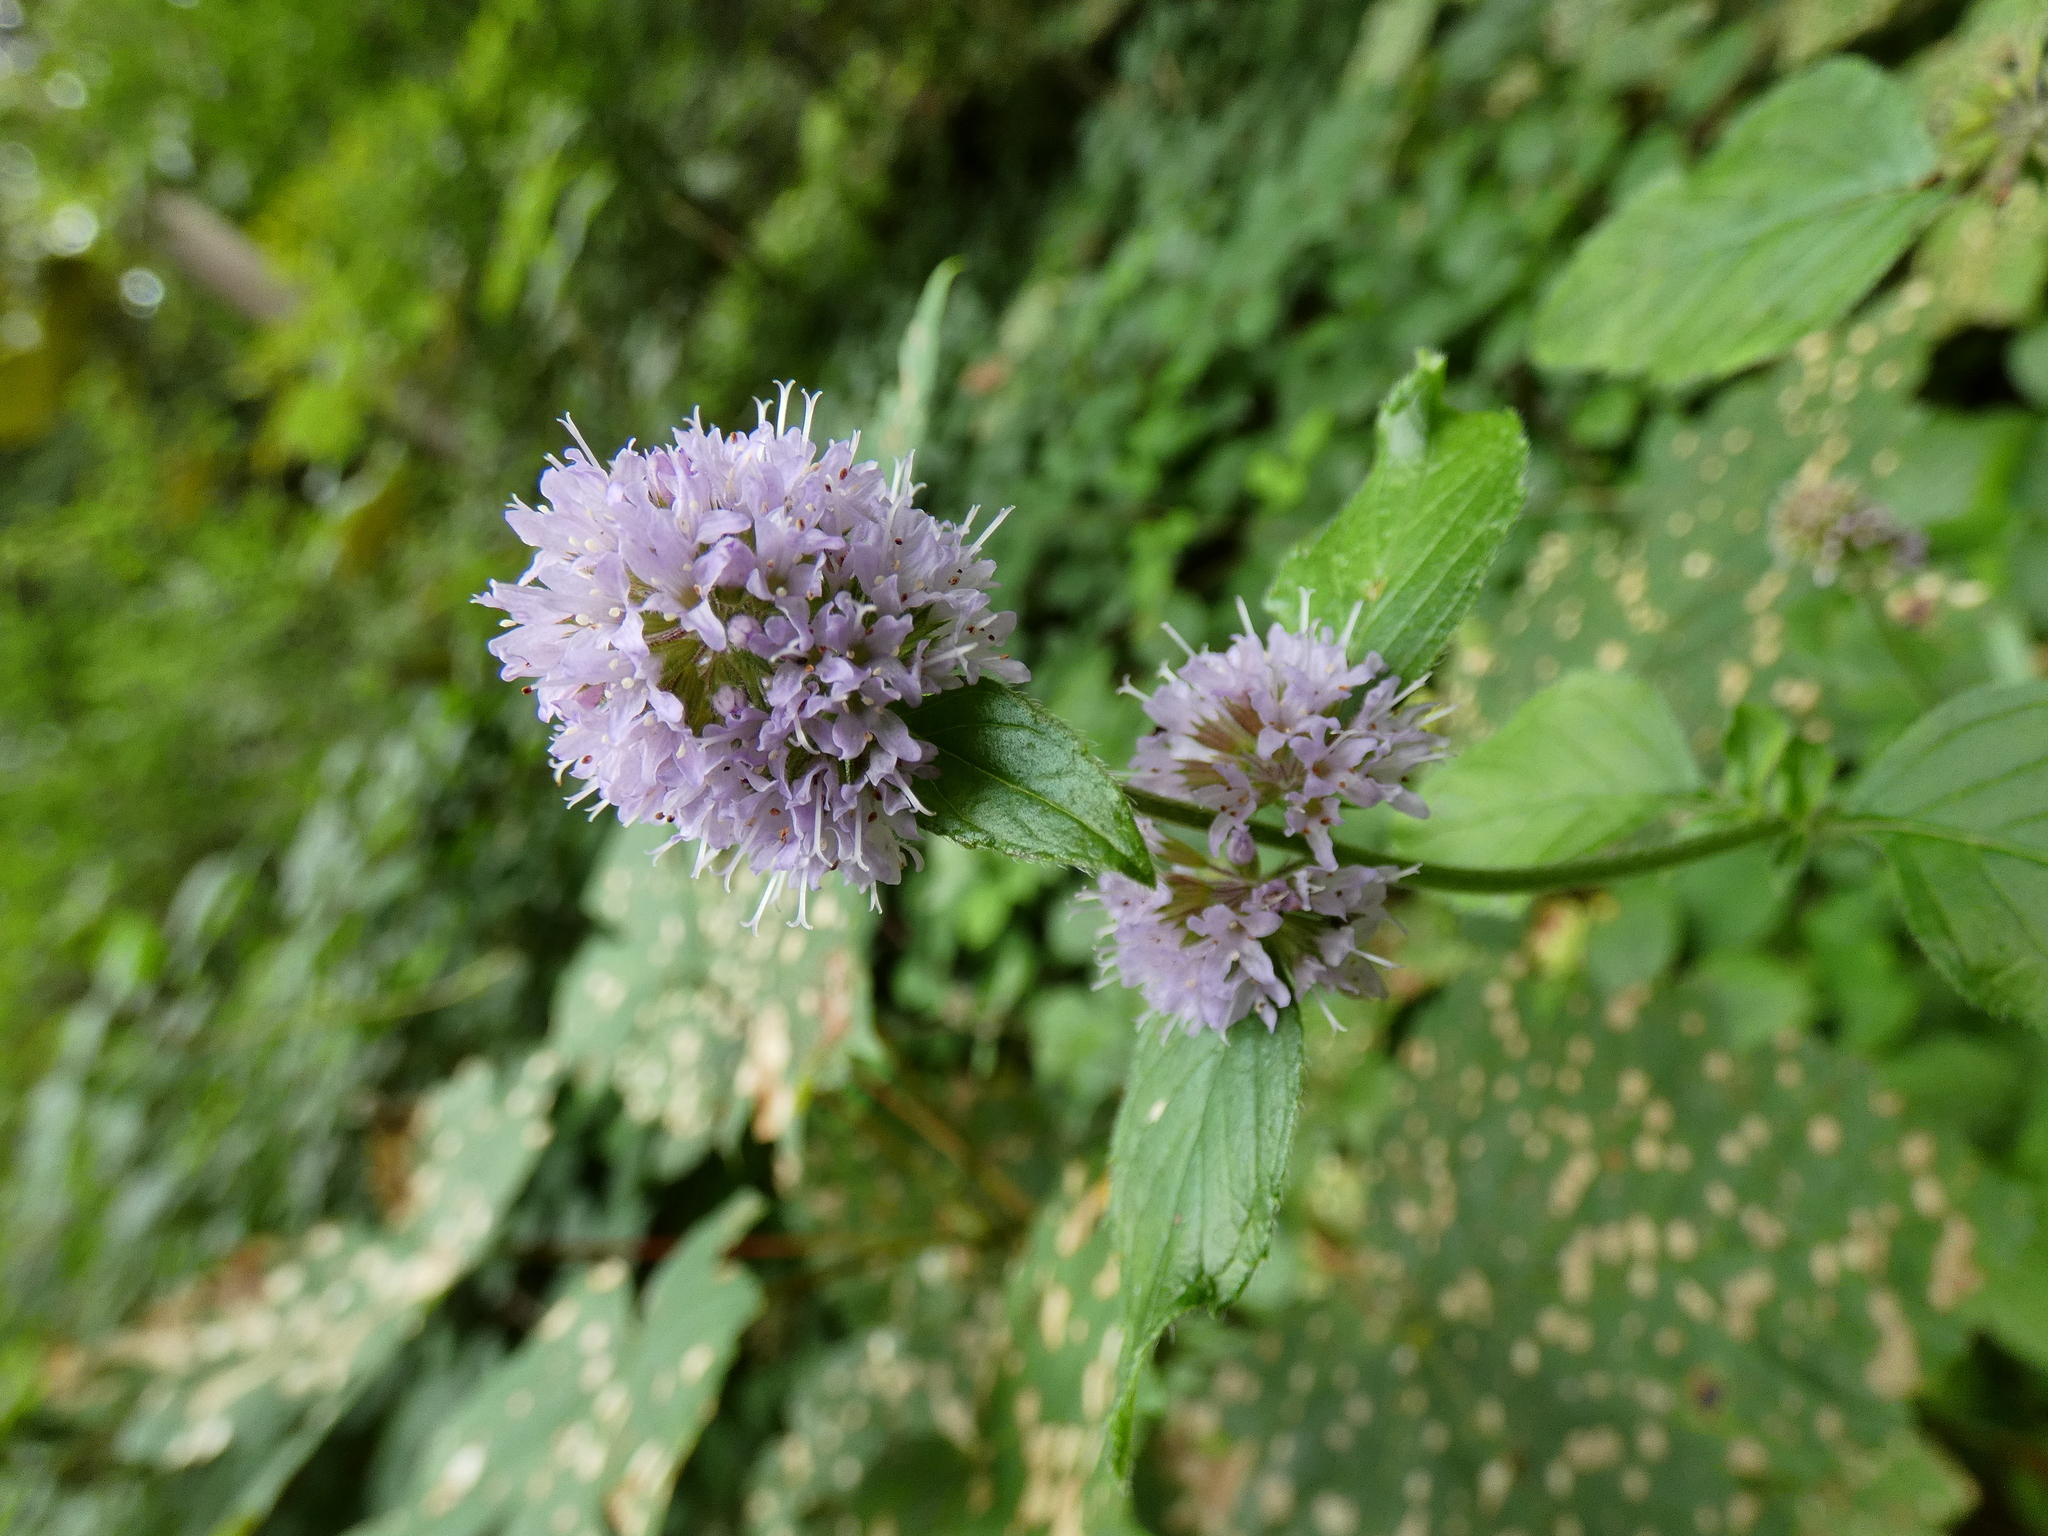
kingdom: Plantae
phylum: Tracheophyta
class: Magnoliopsida
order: Lamiales
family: Lamiaceae
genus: Mentha
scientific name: Mentha aquatica
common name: Water mint
